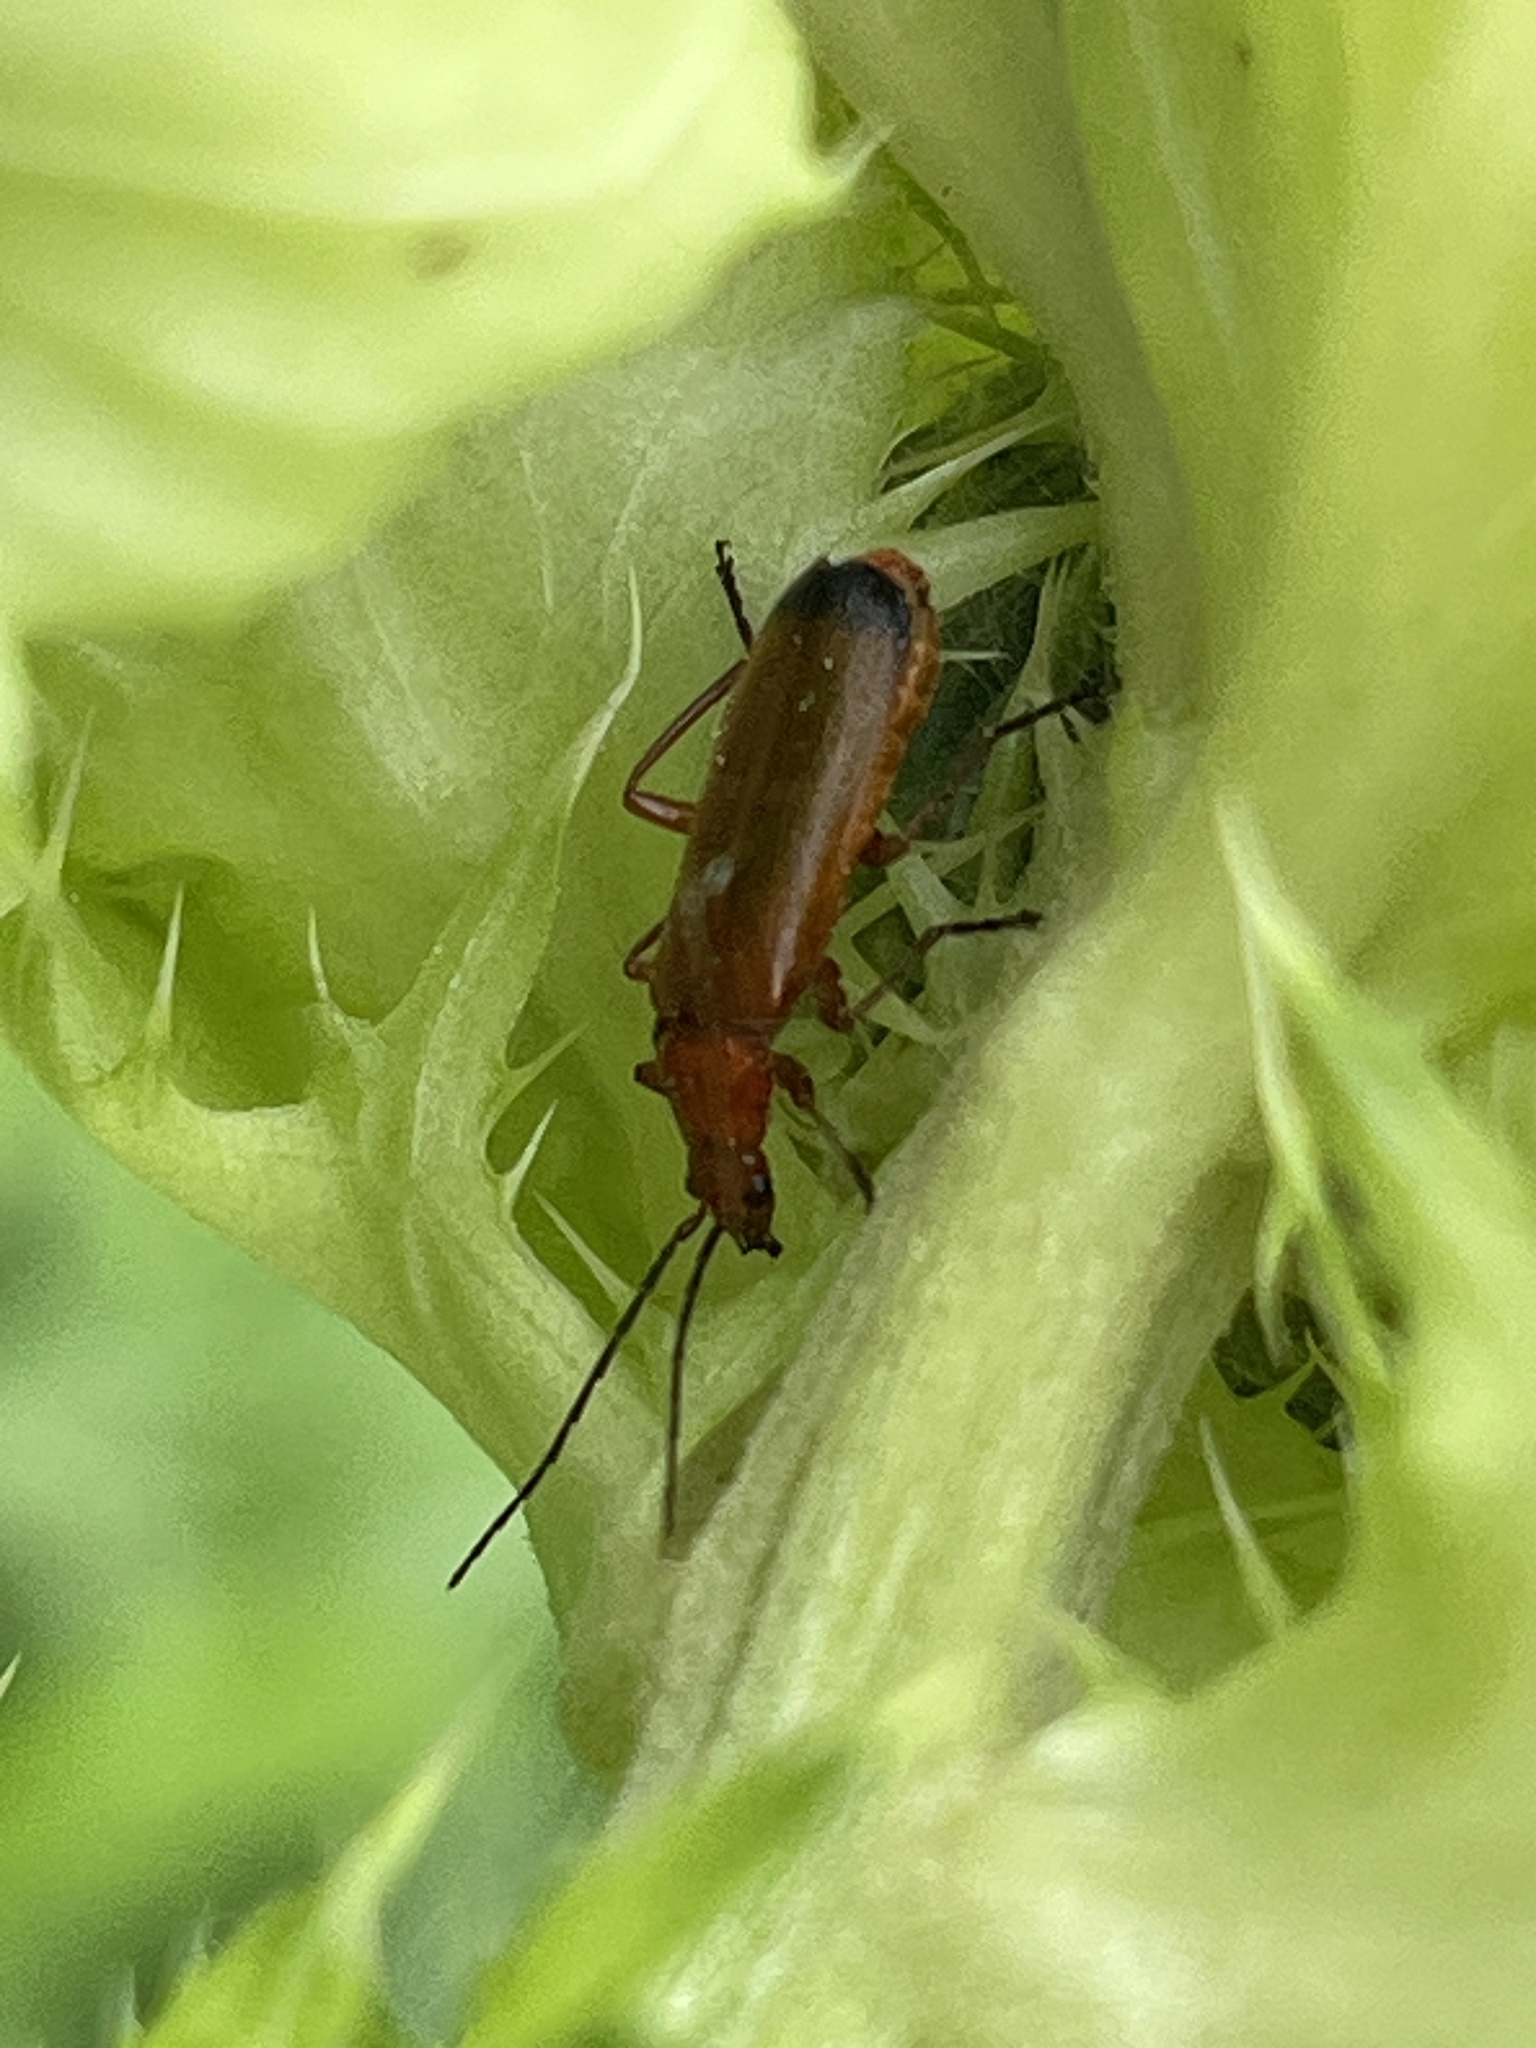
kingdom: Animalia
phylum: Arthropoda
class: Insecta
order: Coleoptera
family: Cantharidae
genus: Rhagonycha
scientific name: Rhagonycha fulva
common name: Common red soldier beetle
